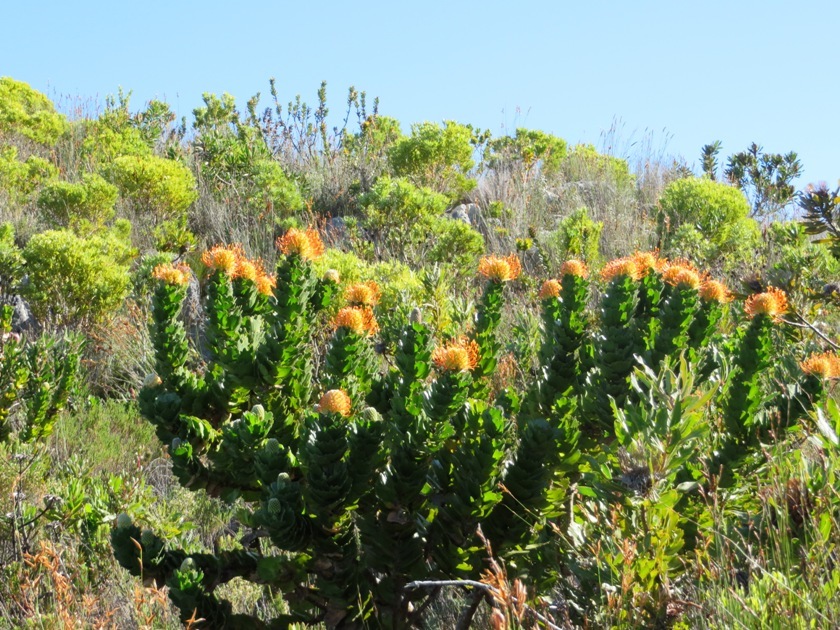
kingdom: Plantae
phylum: Tracheophyta
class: Magnoliopsida
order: Proteales
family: Proteaceae
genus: Leucospermum
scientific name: Leucospermum patersonii
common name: False tree pincushion
